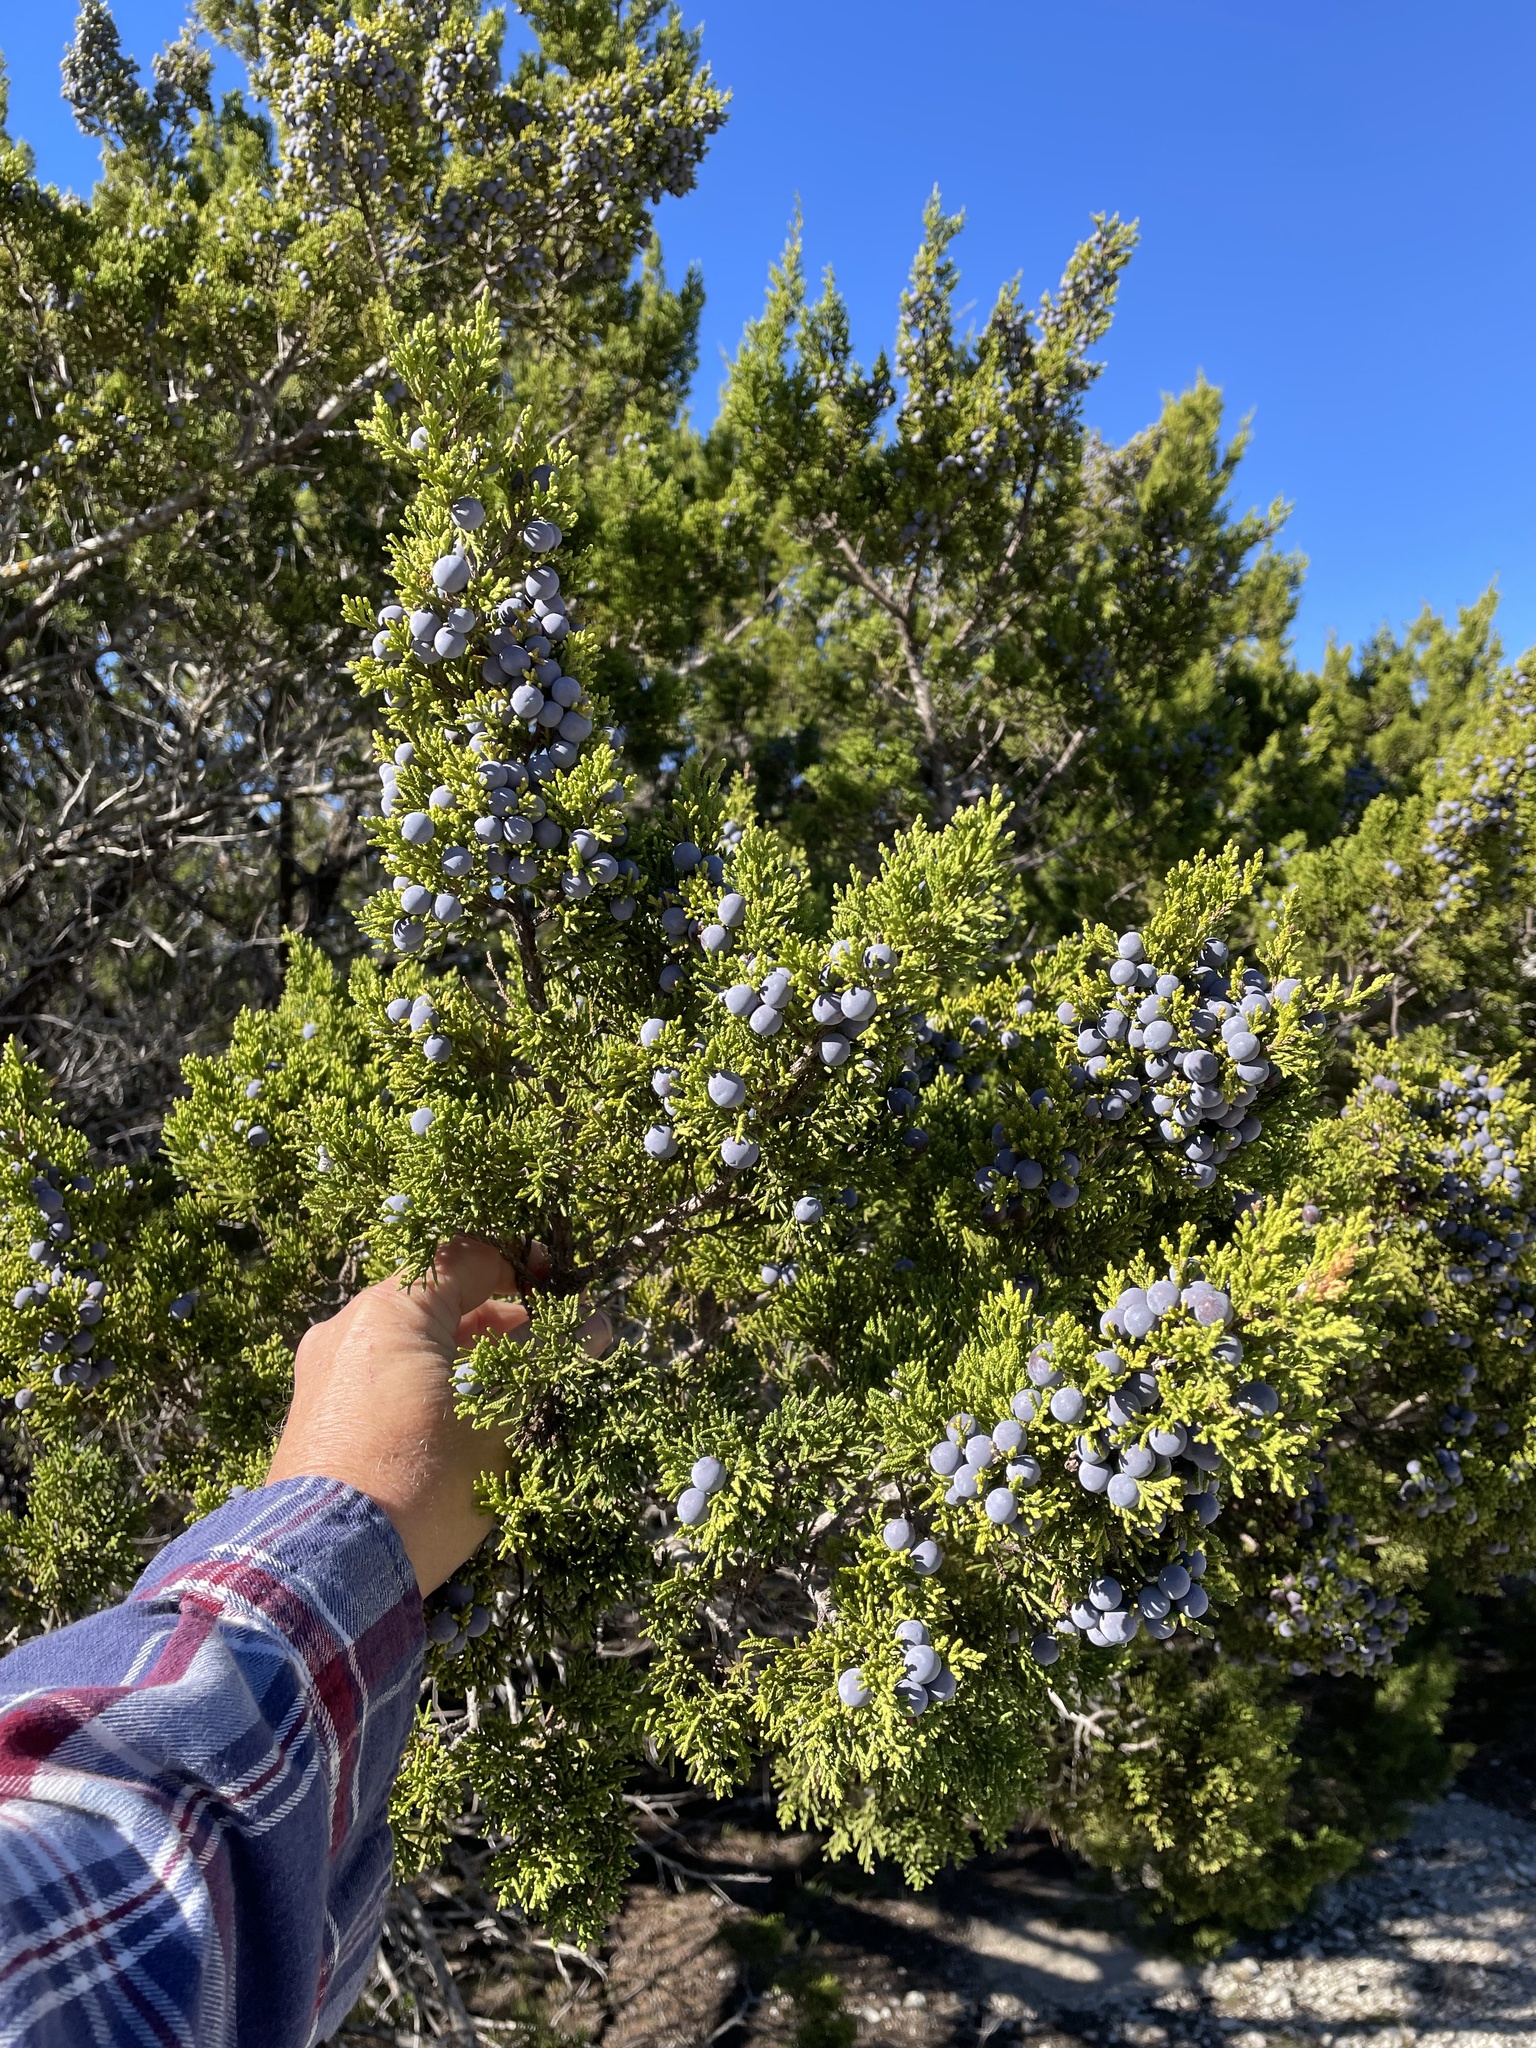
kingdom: Plantae
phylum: Tracheophyta
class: Pinopsida
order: Pinales
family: Cupressaceae
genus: Juniperus
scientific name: Juniperus ashei
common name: Mexican juniper
